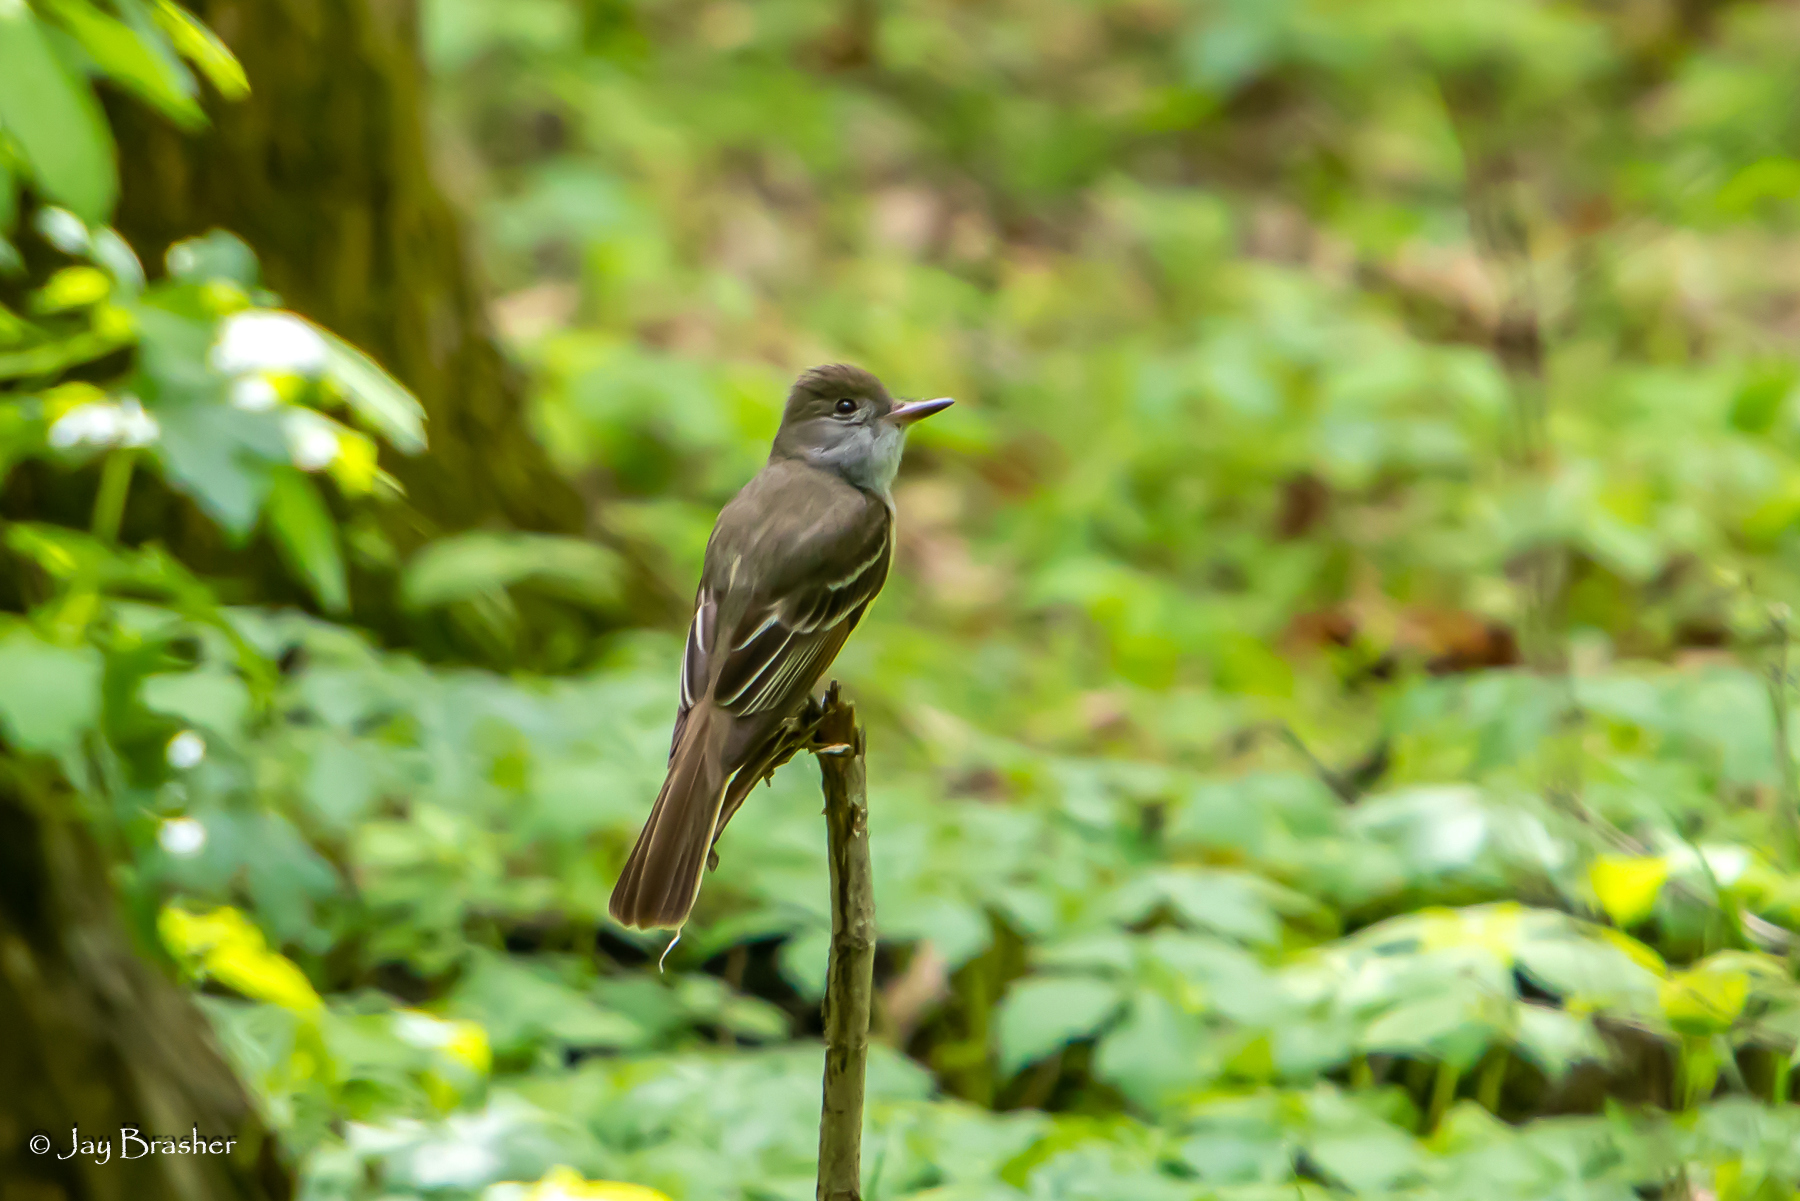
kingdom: Animalia
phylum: Chordata
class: Aves
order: Passeriformes
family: Tyrannidae
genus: Myiarchus
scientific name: Myiarchus crinitus
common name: Great crested flycatcher
